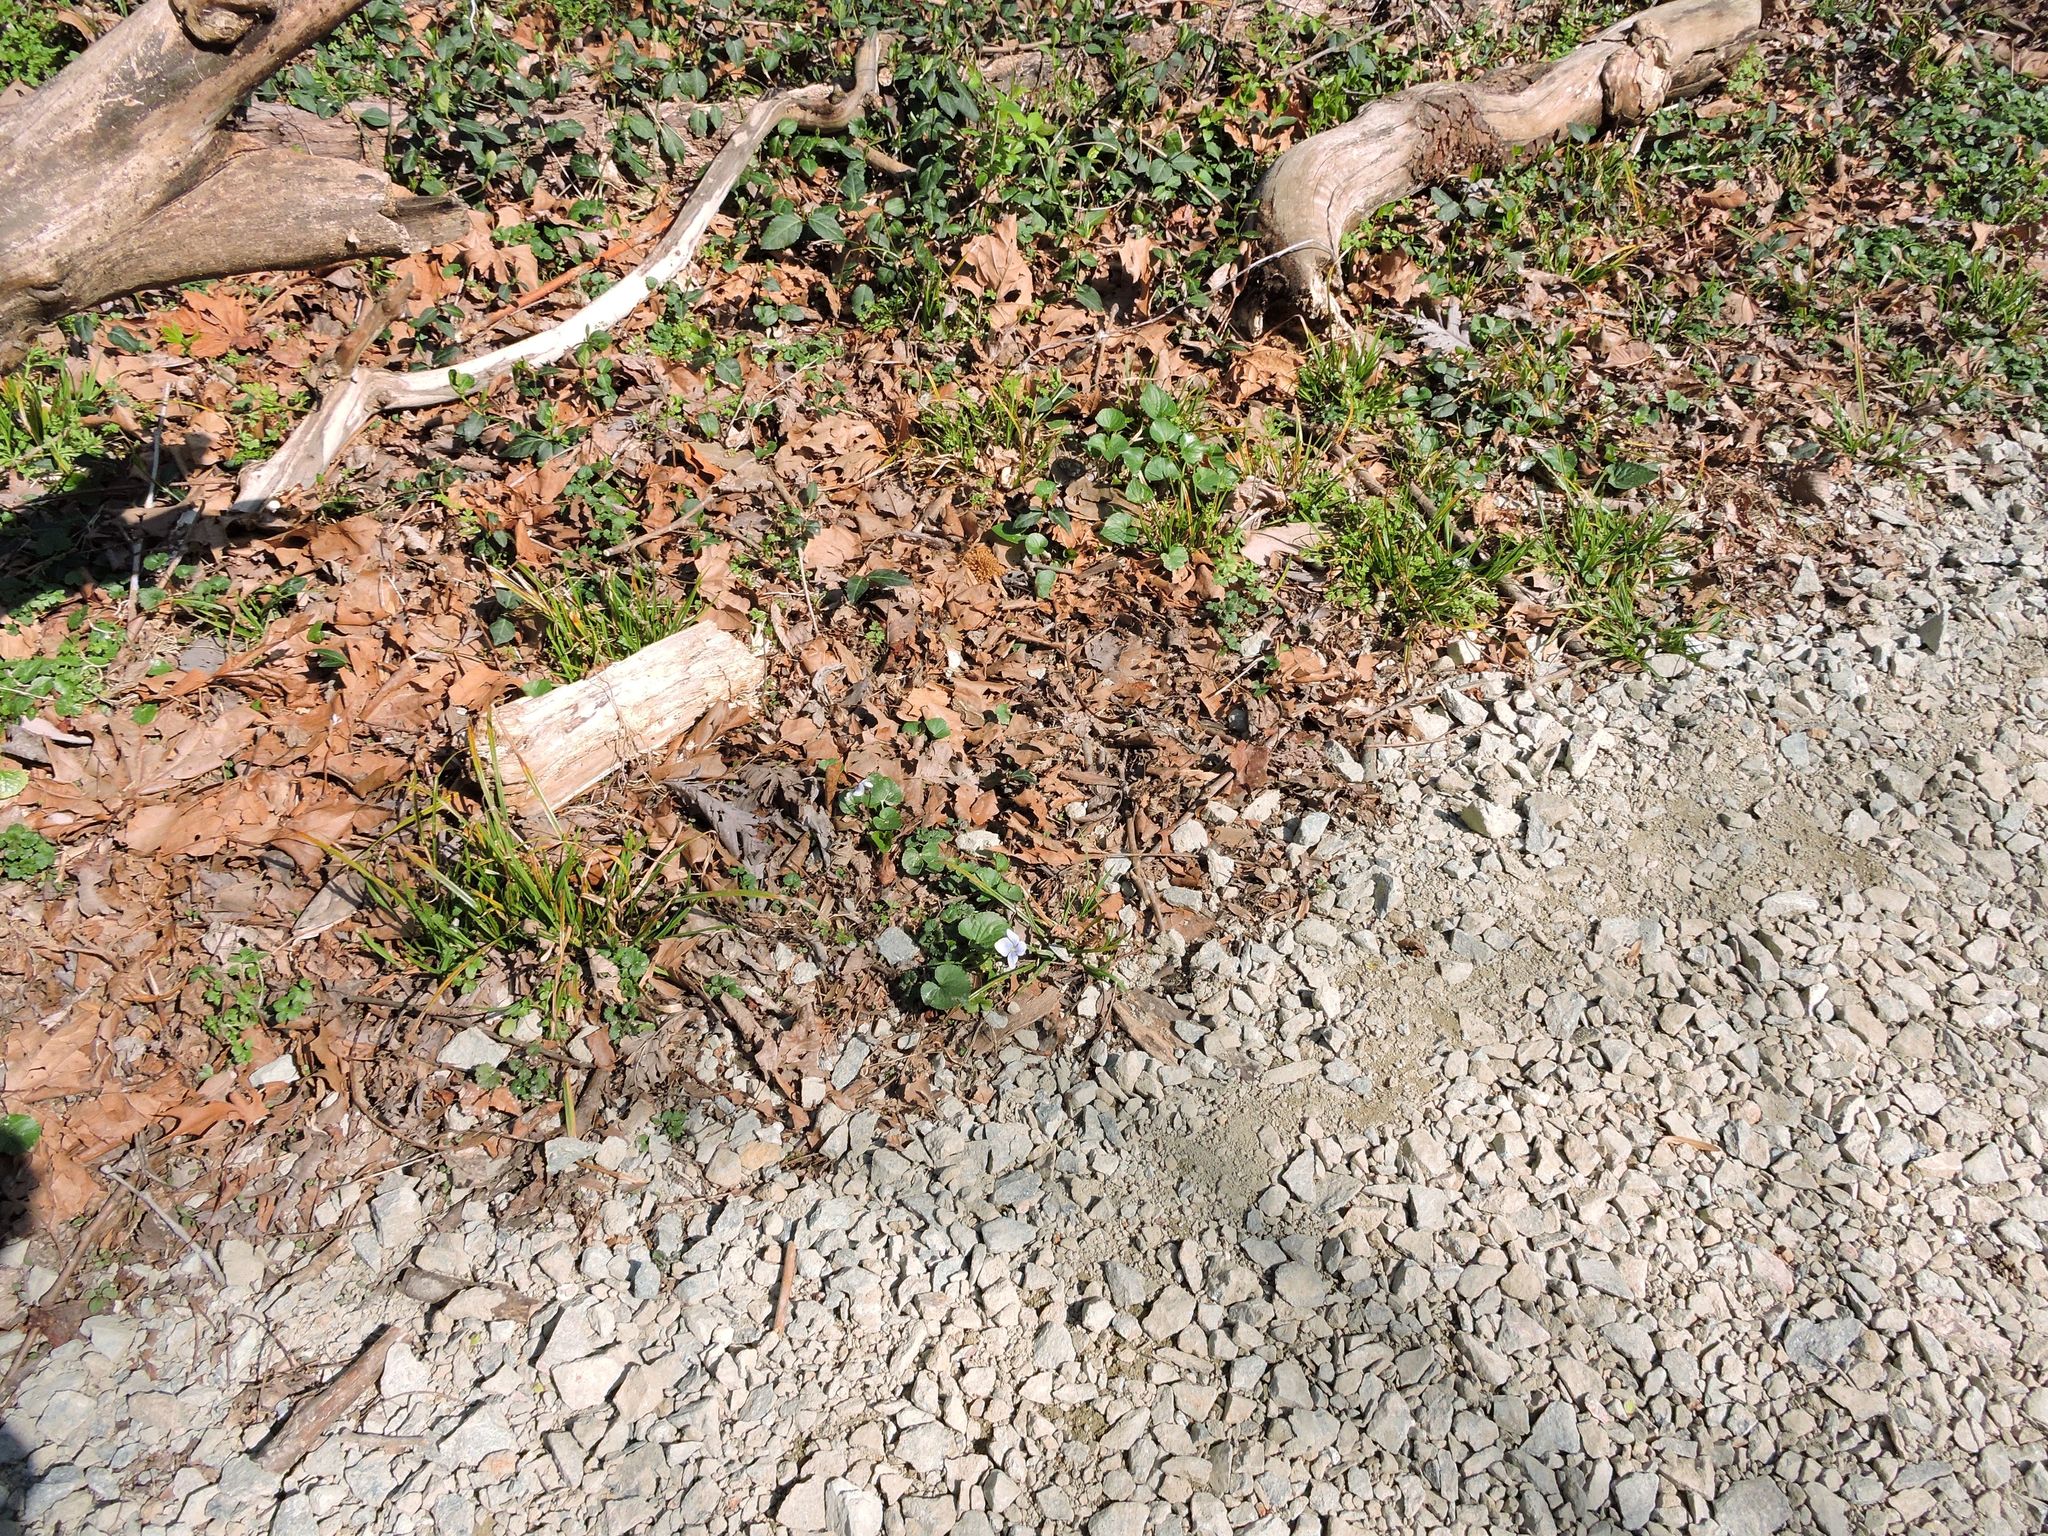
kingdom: Plantae
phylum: Tracheophyta
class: Magnoliopsida
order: Malpighiales
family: Violaceae
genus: Viola
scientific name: Viola sororia
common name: Dooryard violet
